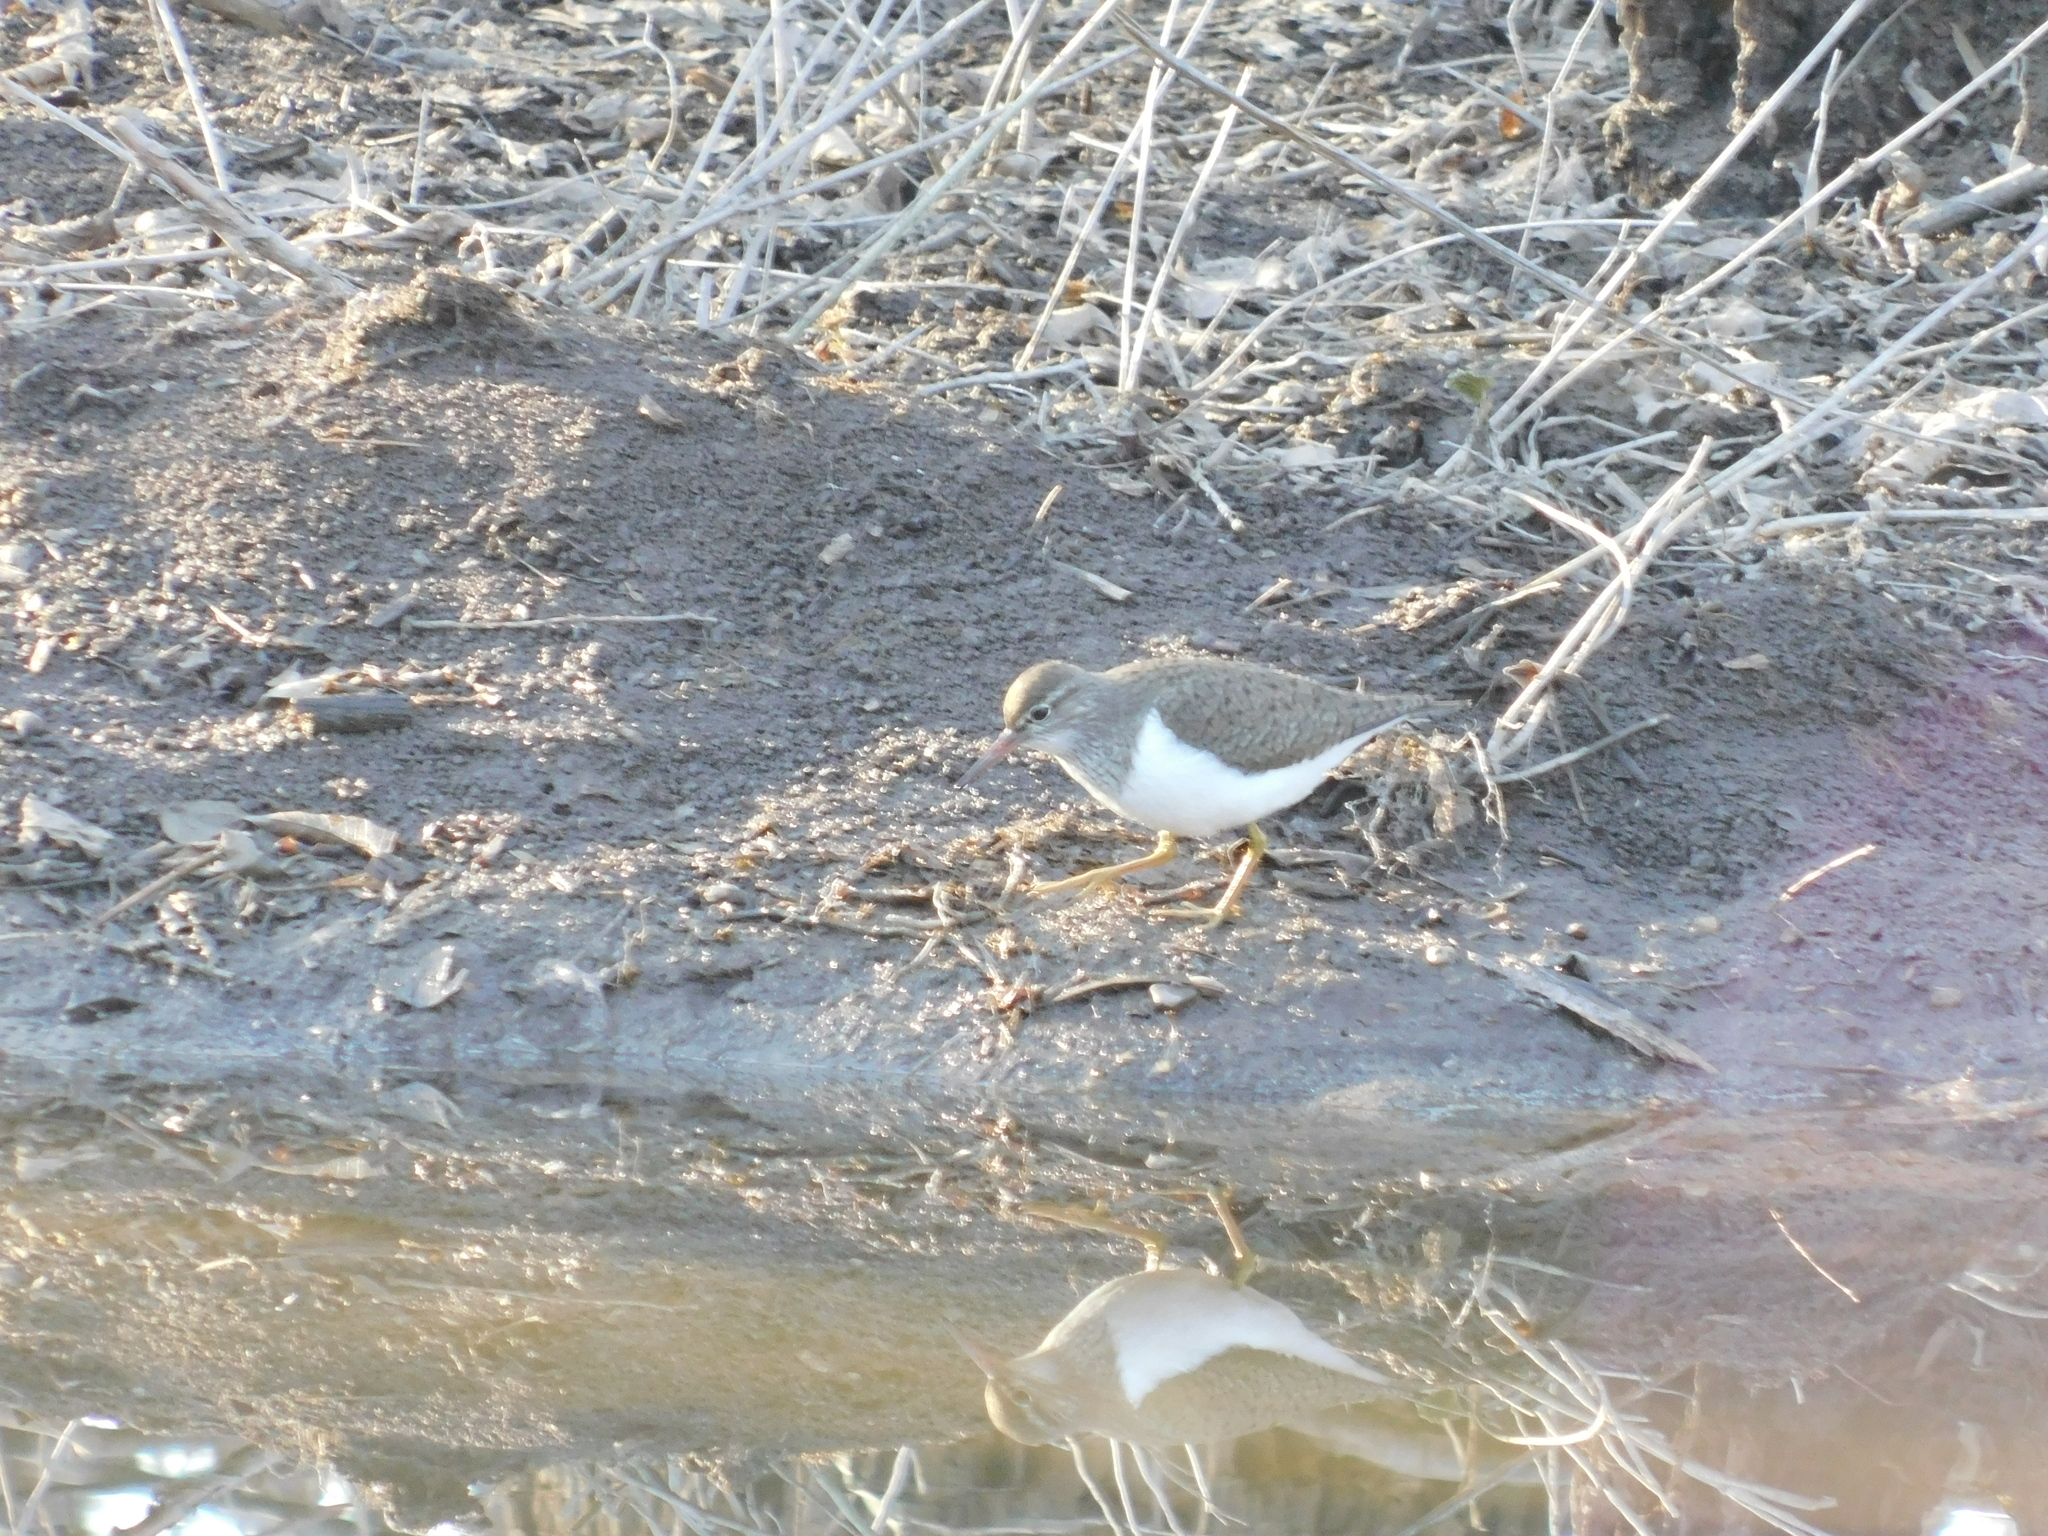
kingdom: Animalia
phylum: Chordata
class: Aves
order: Charadriiformes
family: Scolopacidae
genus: Actitis
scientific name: Actitis hypoleucos
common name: Common sandpiper
